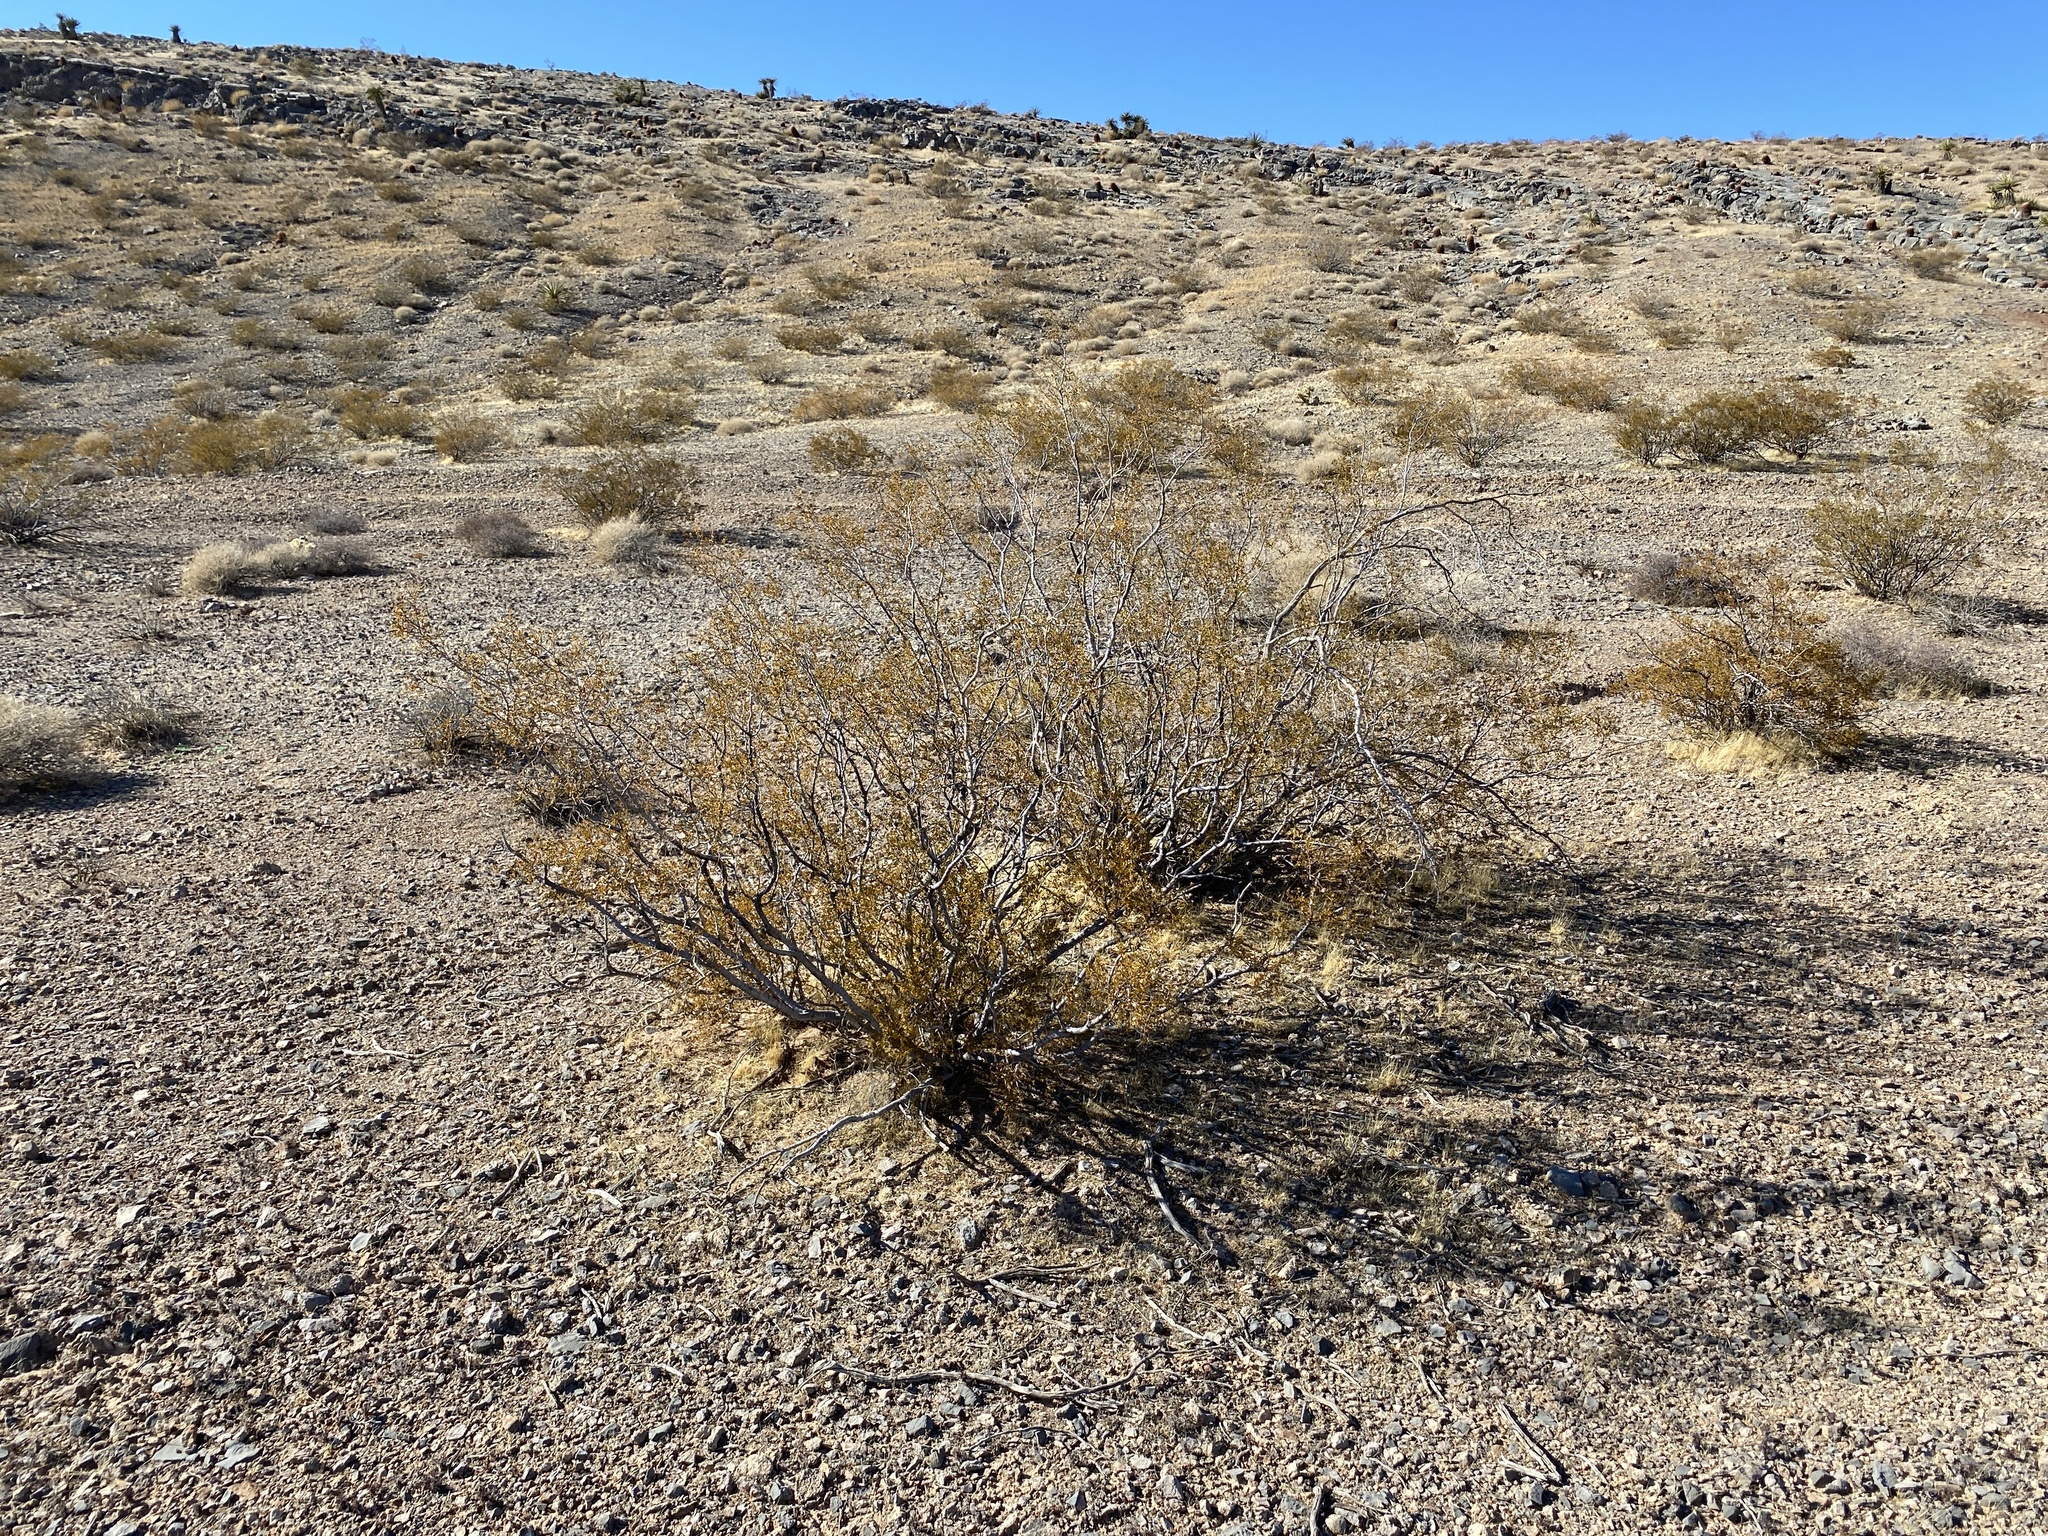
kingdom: Plantae
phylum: Tracheophyta
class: Magnoliopsida
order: Zygophyllales
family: Zygophyllaceae
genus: Larrea
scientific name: Larrea tridentata
